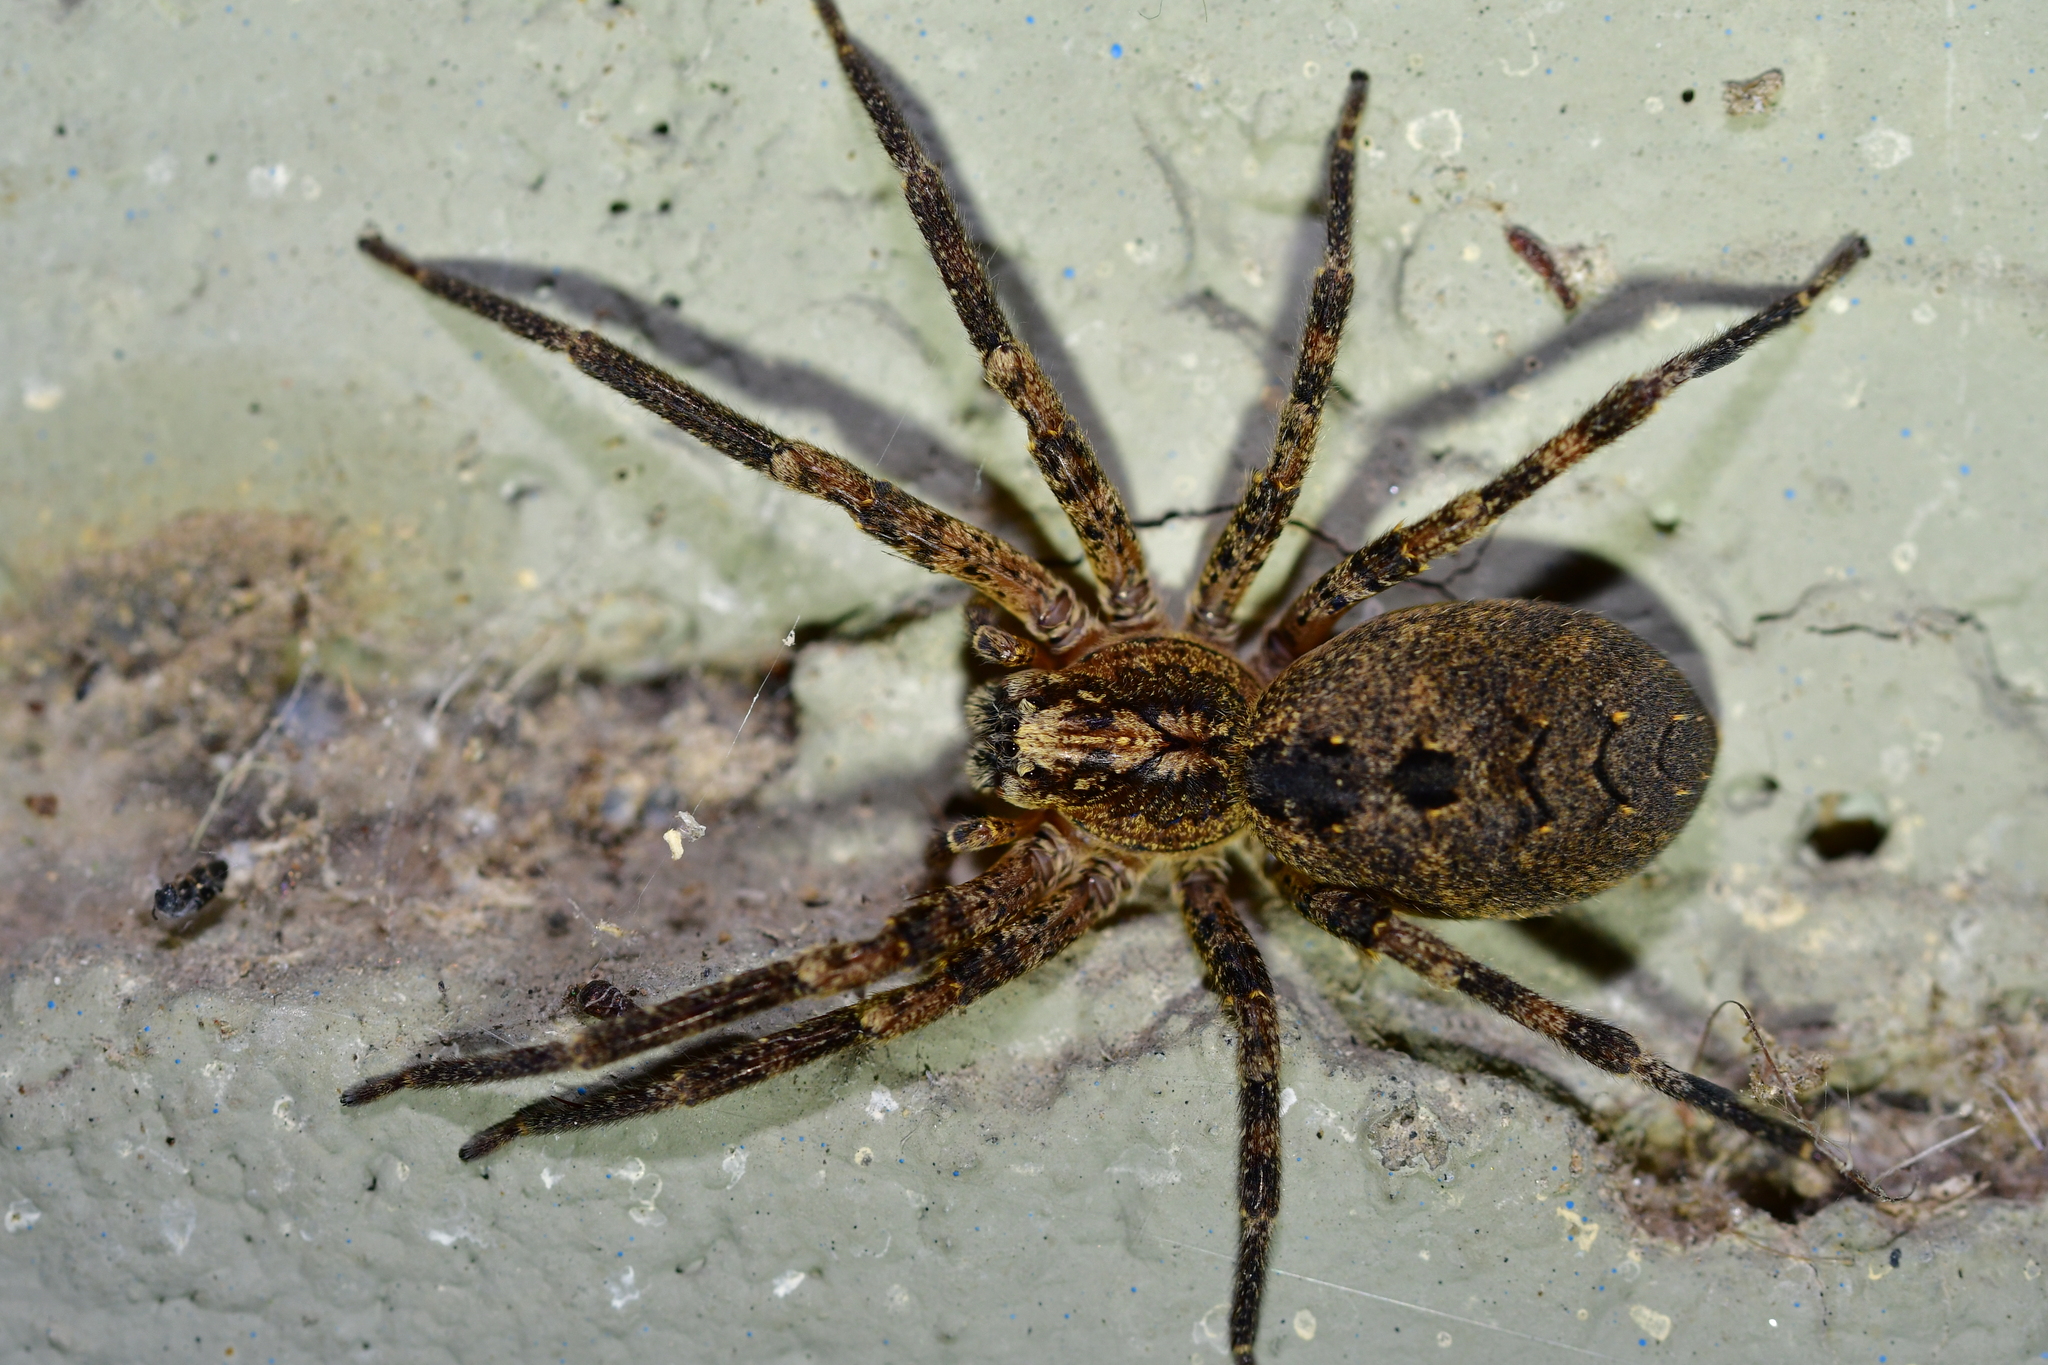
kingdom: Animalia
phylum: Arthropoda
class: Arachnida
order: Araneae
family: Zoropsidae
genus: Zoropsis
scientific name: Zoropsis spinimana
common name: Zoropsid spider
